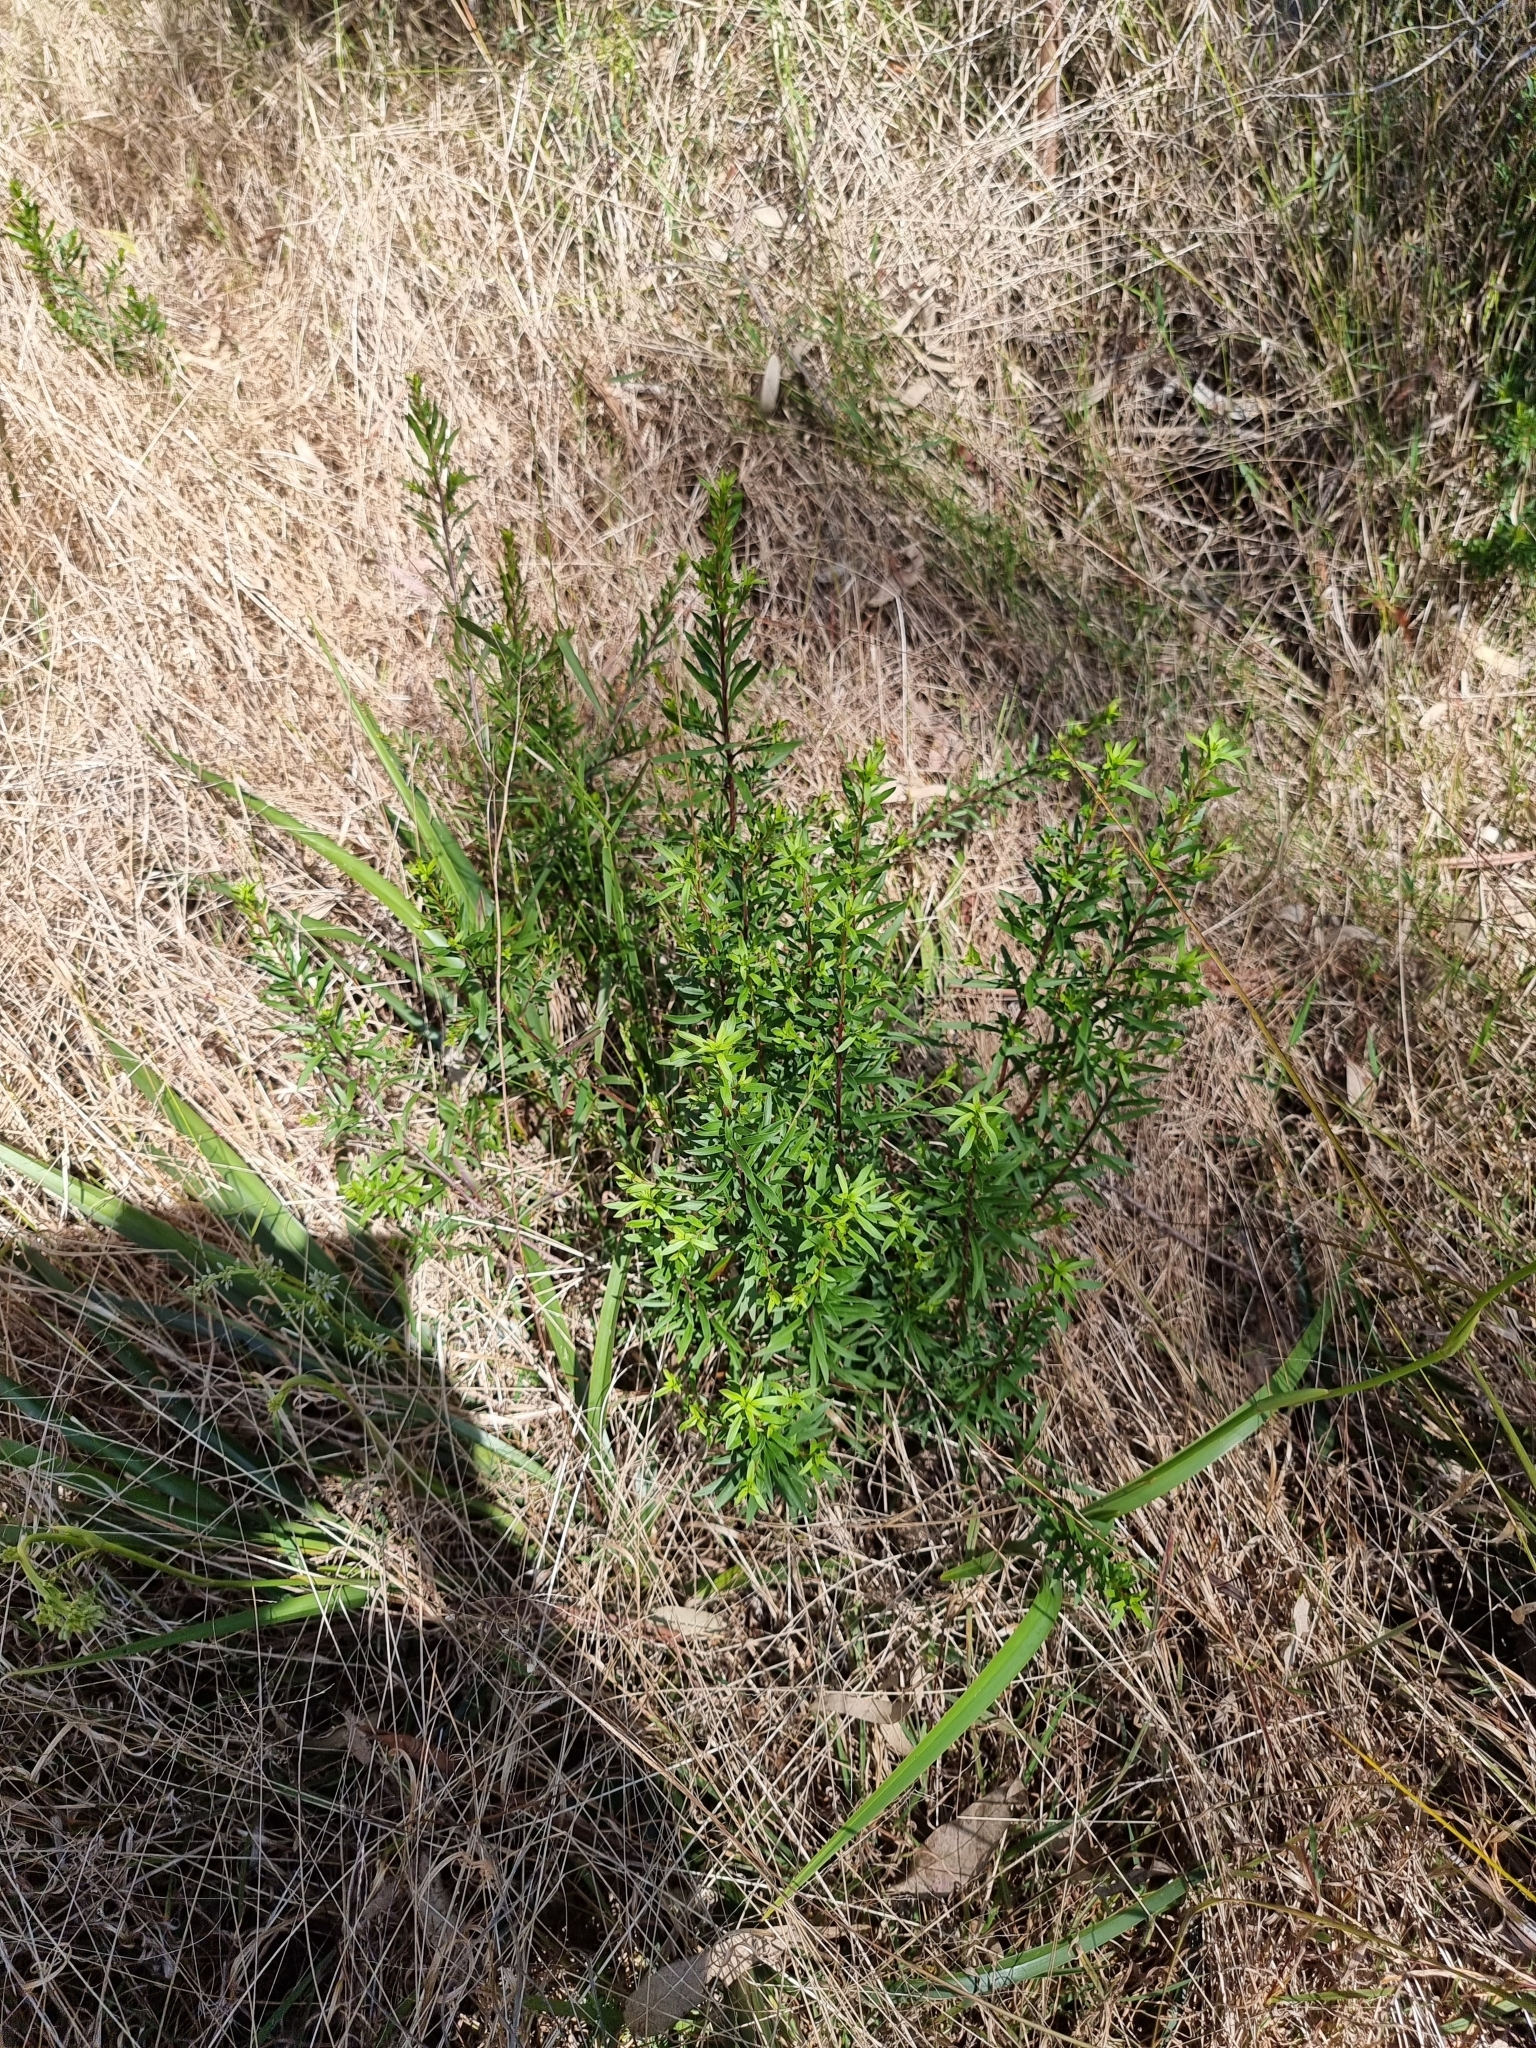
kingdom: Plantae
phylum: Tracheophyta
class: Magnoliopsida
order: Apiales
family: Apiaceae
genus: Platysace
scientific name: Platysace lanceolata
